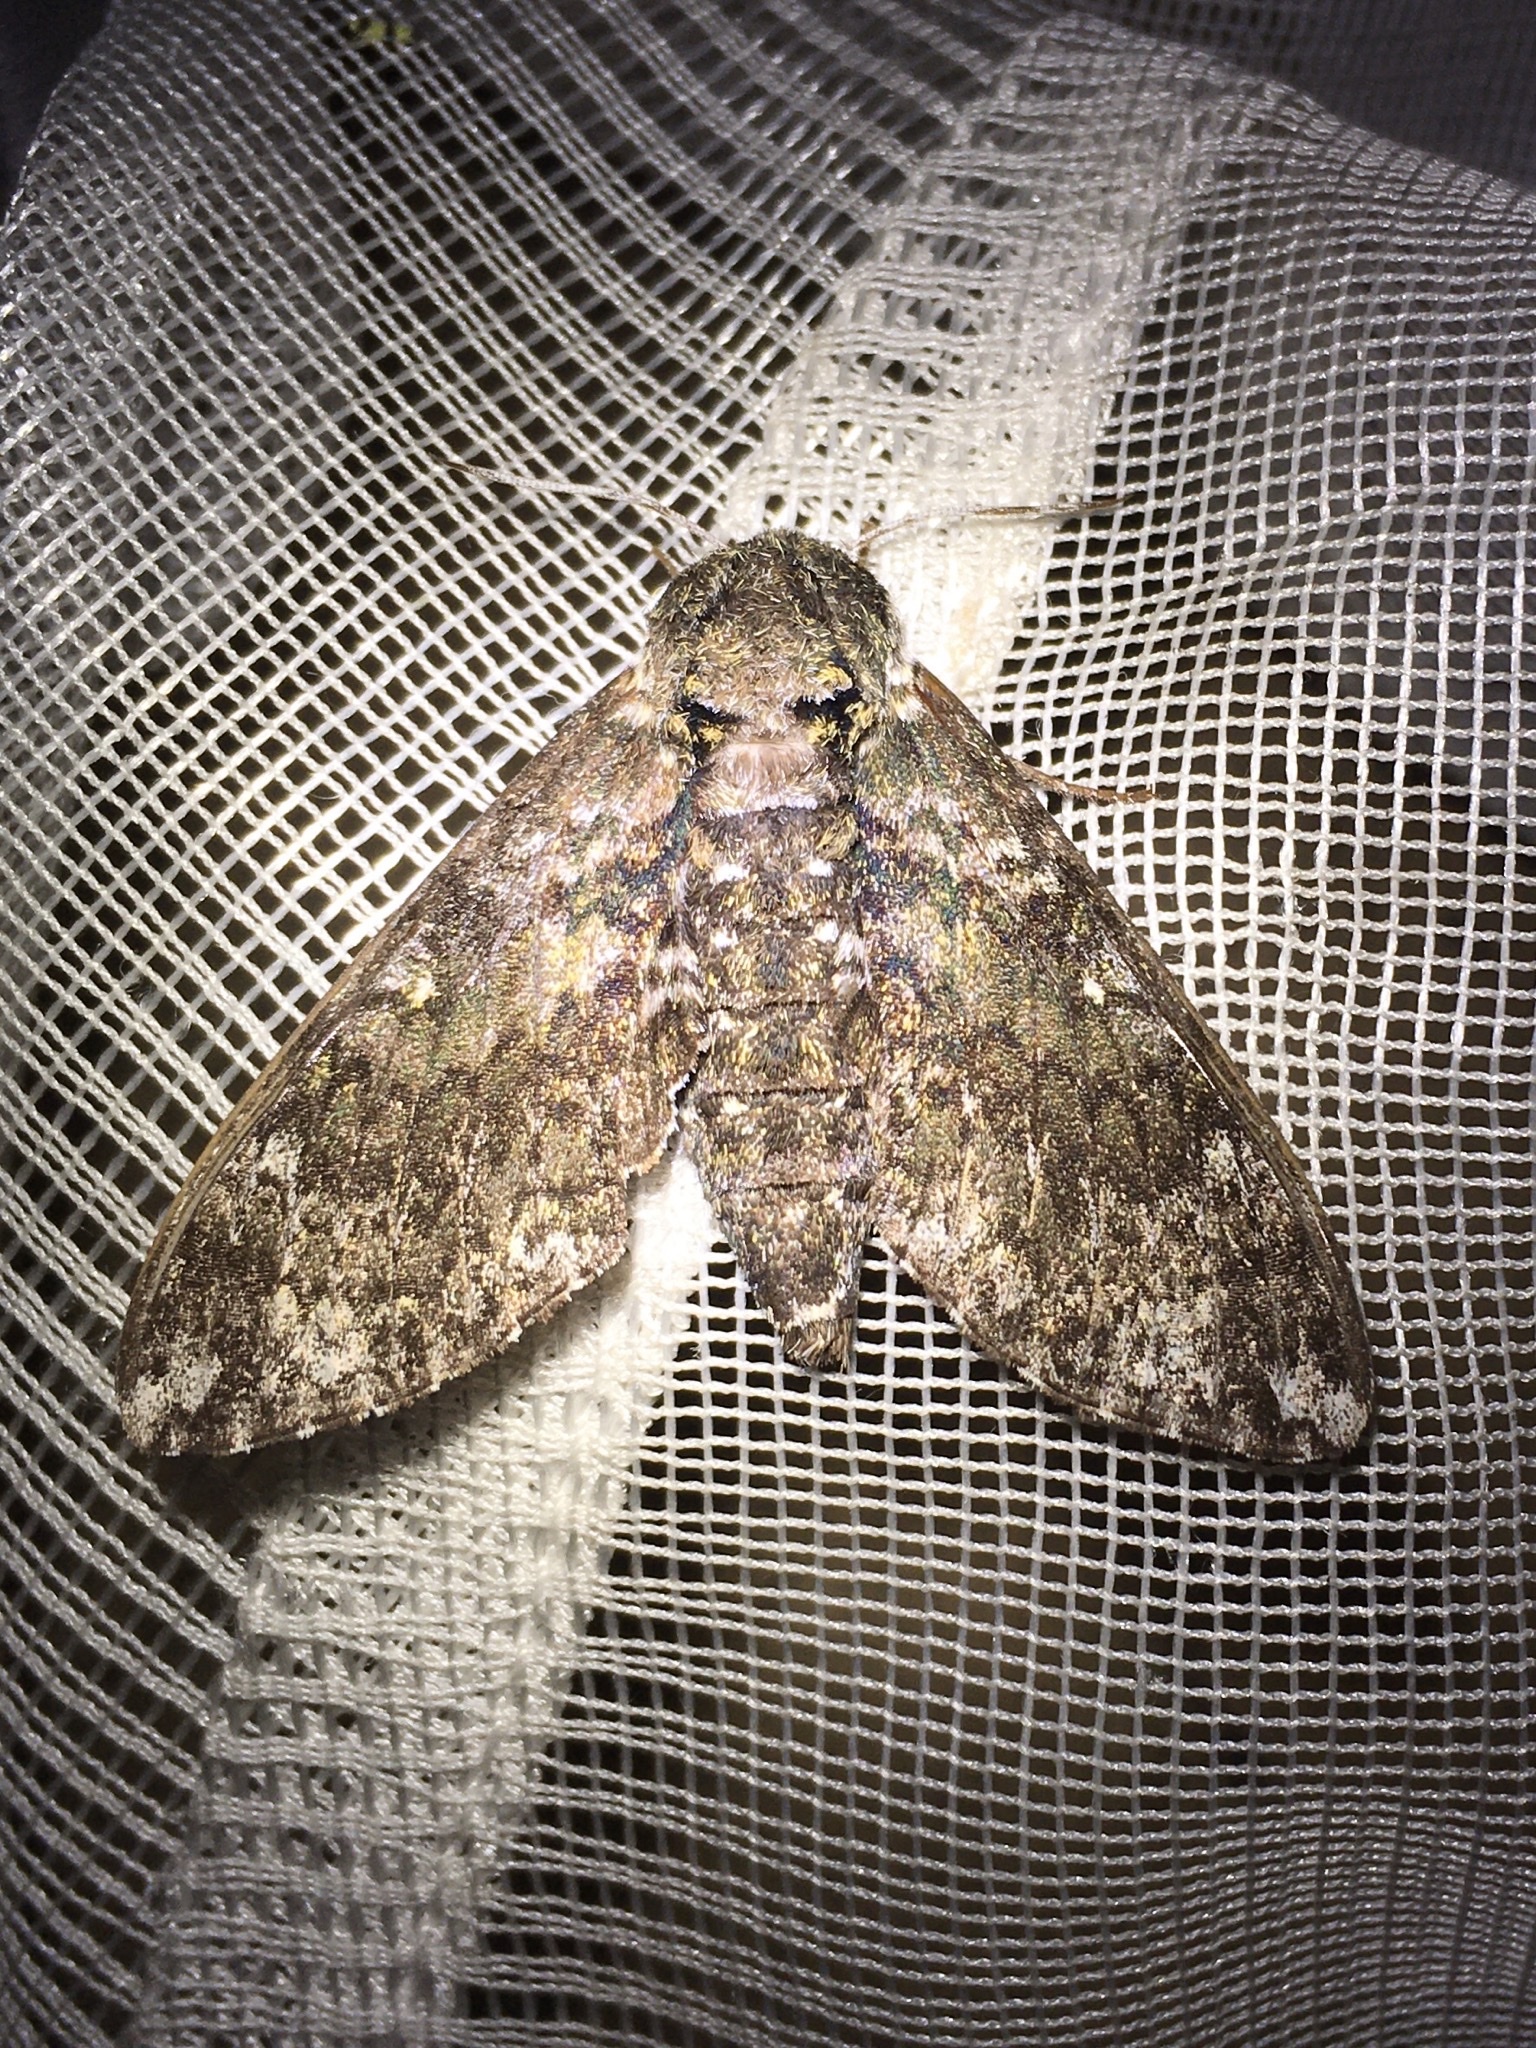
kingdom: Animalia
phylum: Arthropoda
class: Insecta
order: Lepidoptera
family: Sphingidae
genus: Dolba
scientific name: Dolba hyloeus
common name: Pawpaw sphinx
